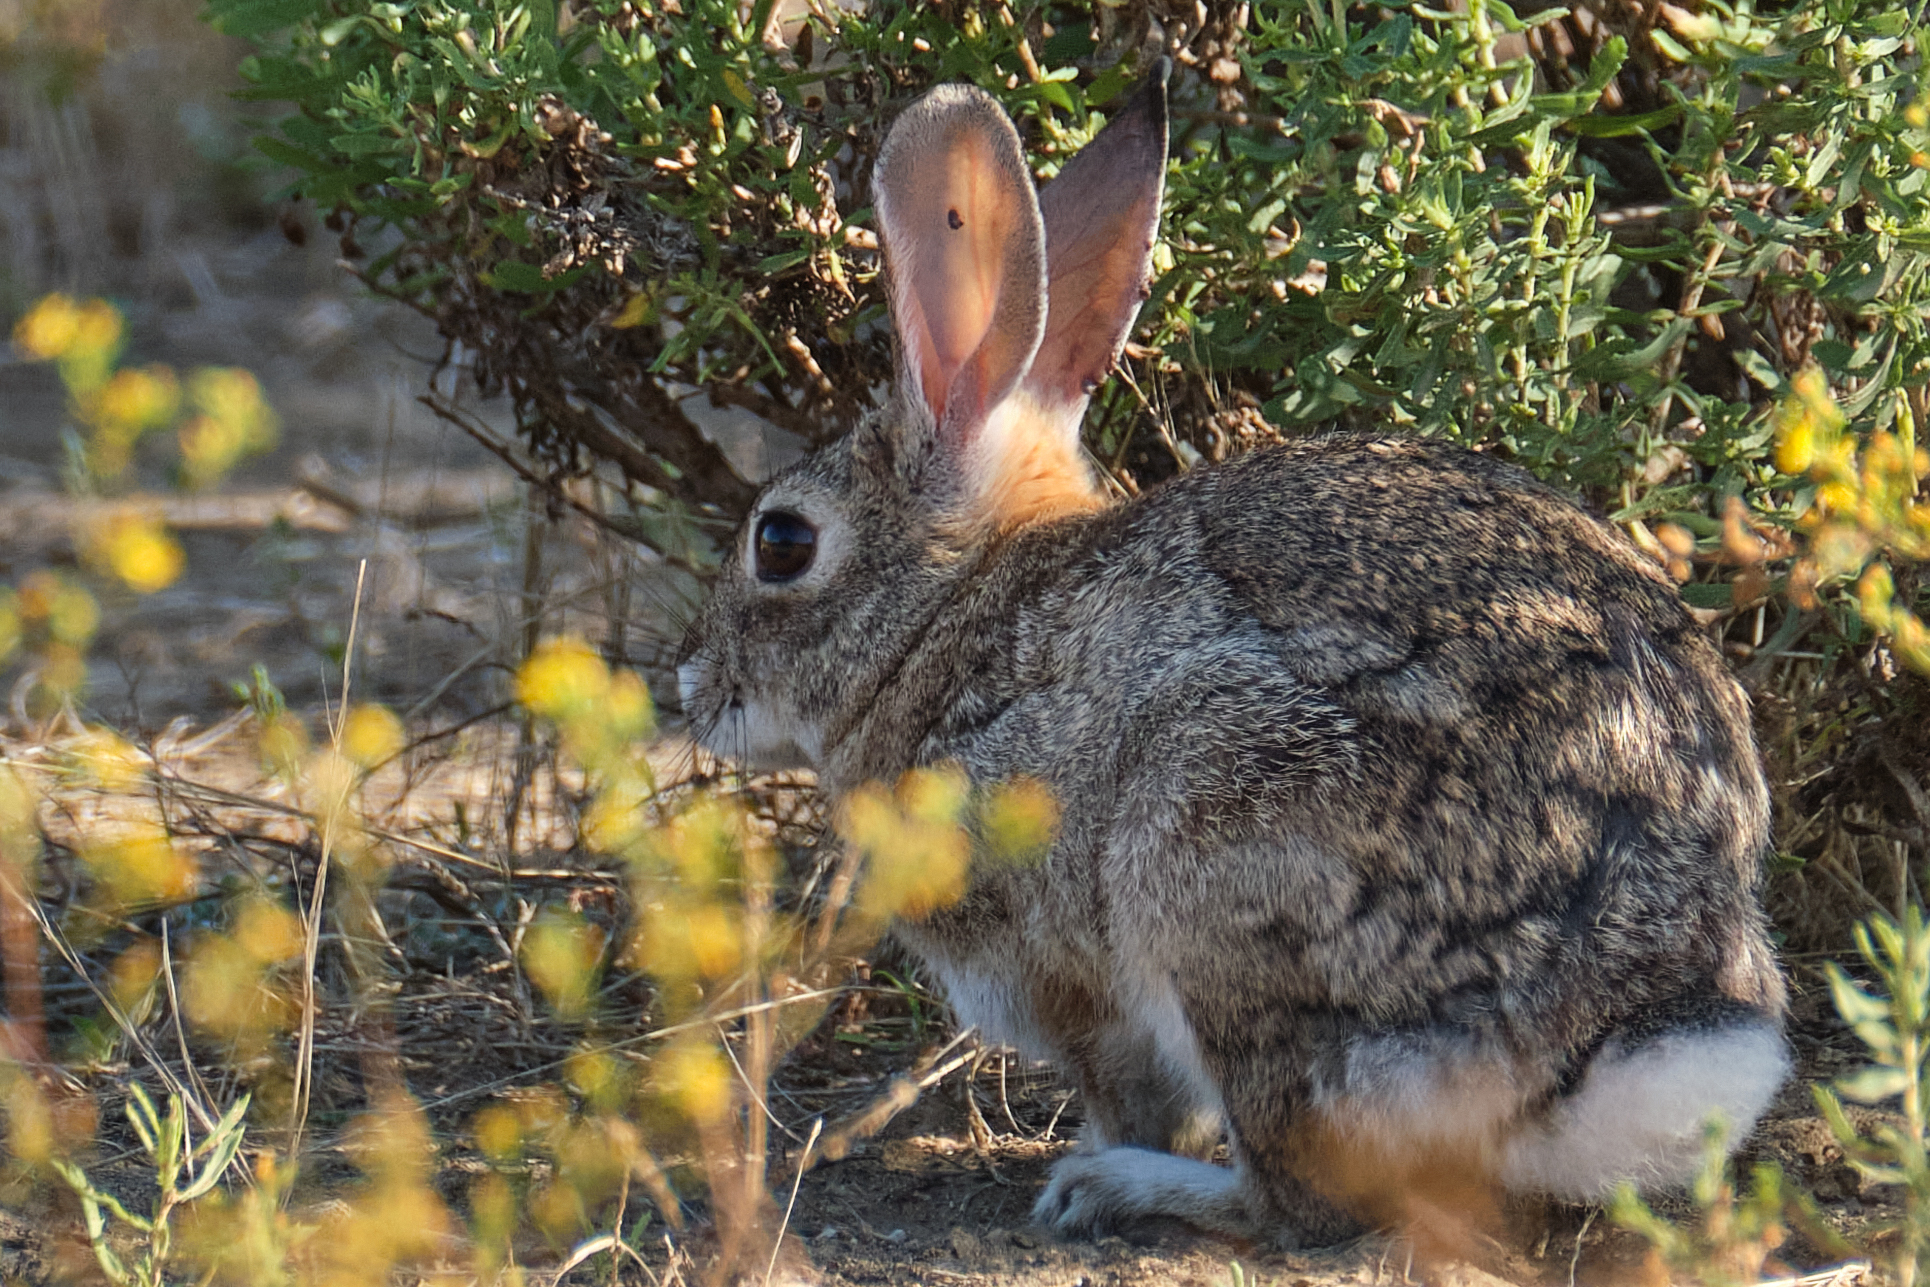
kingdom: Animalia
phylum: Chordata
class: Mammalia
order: Lagomorpha
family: Leporidae
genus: Sylvilagus
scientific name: Sylvilagus audubonii
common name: Desert cottontail
